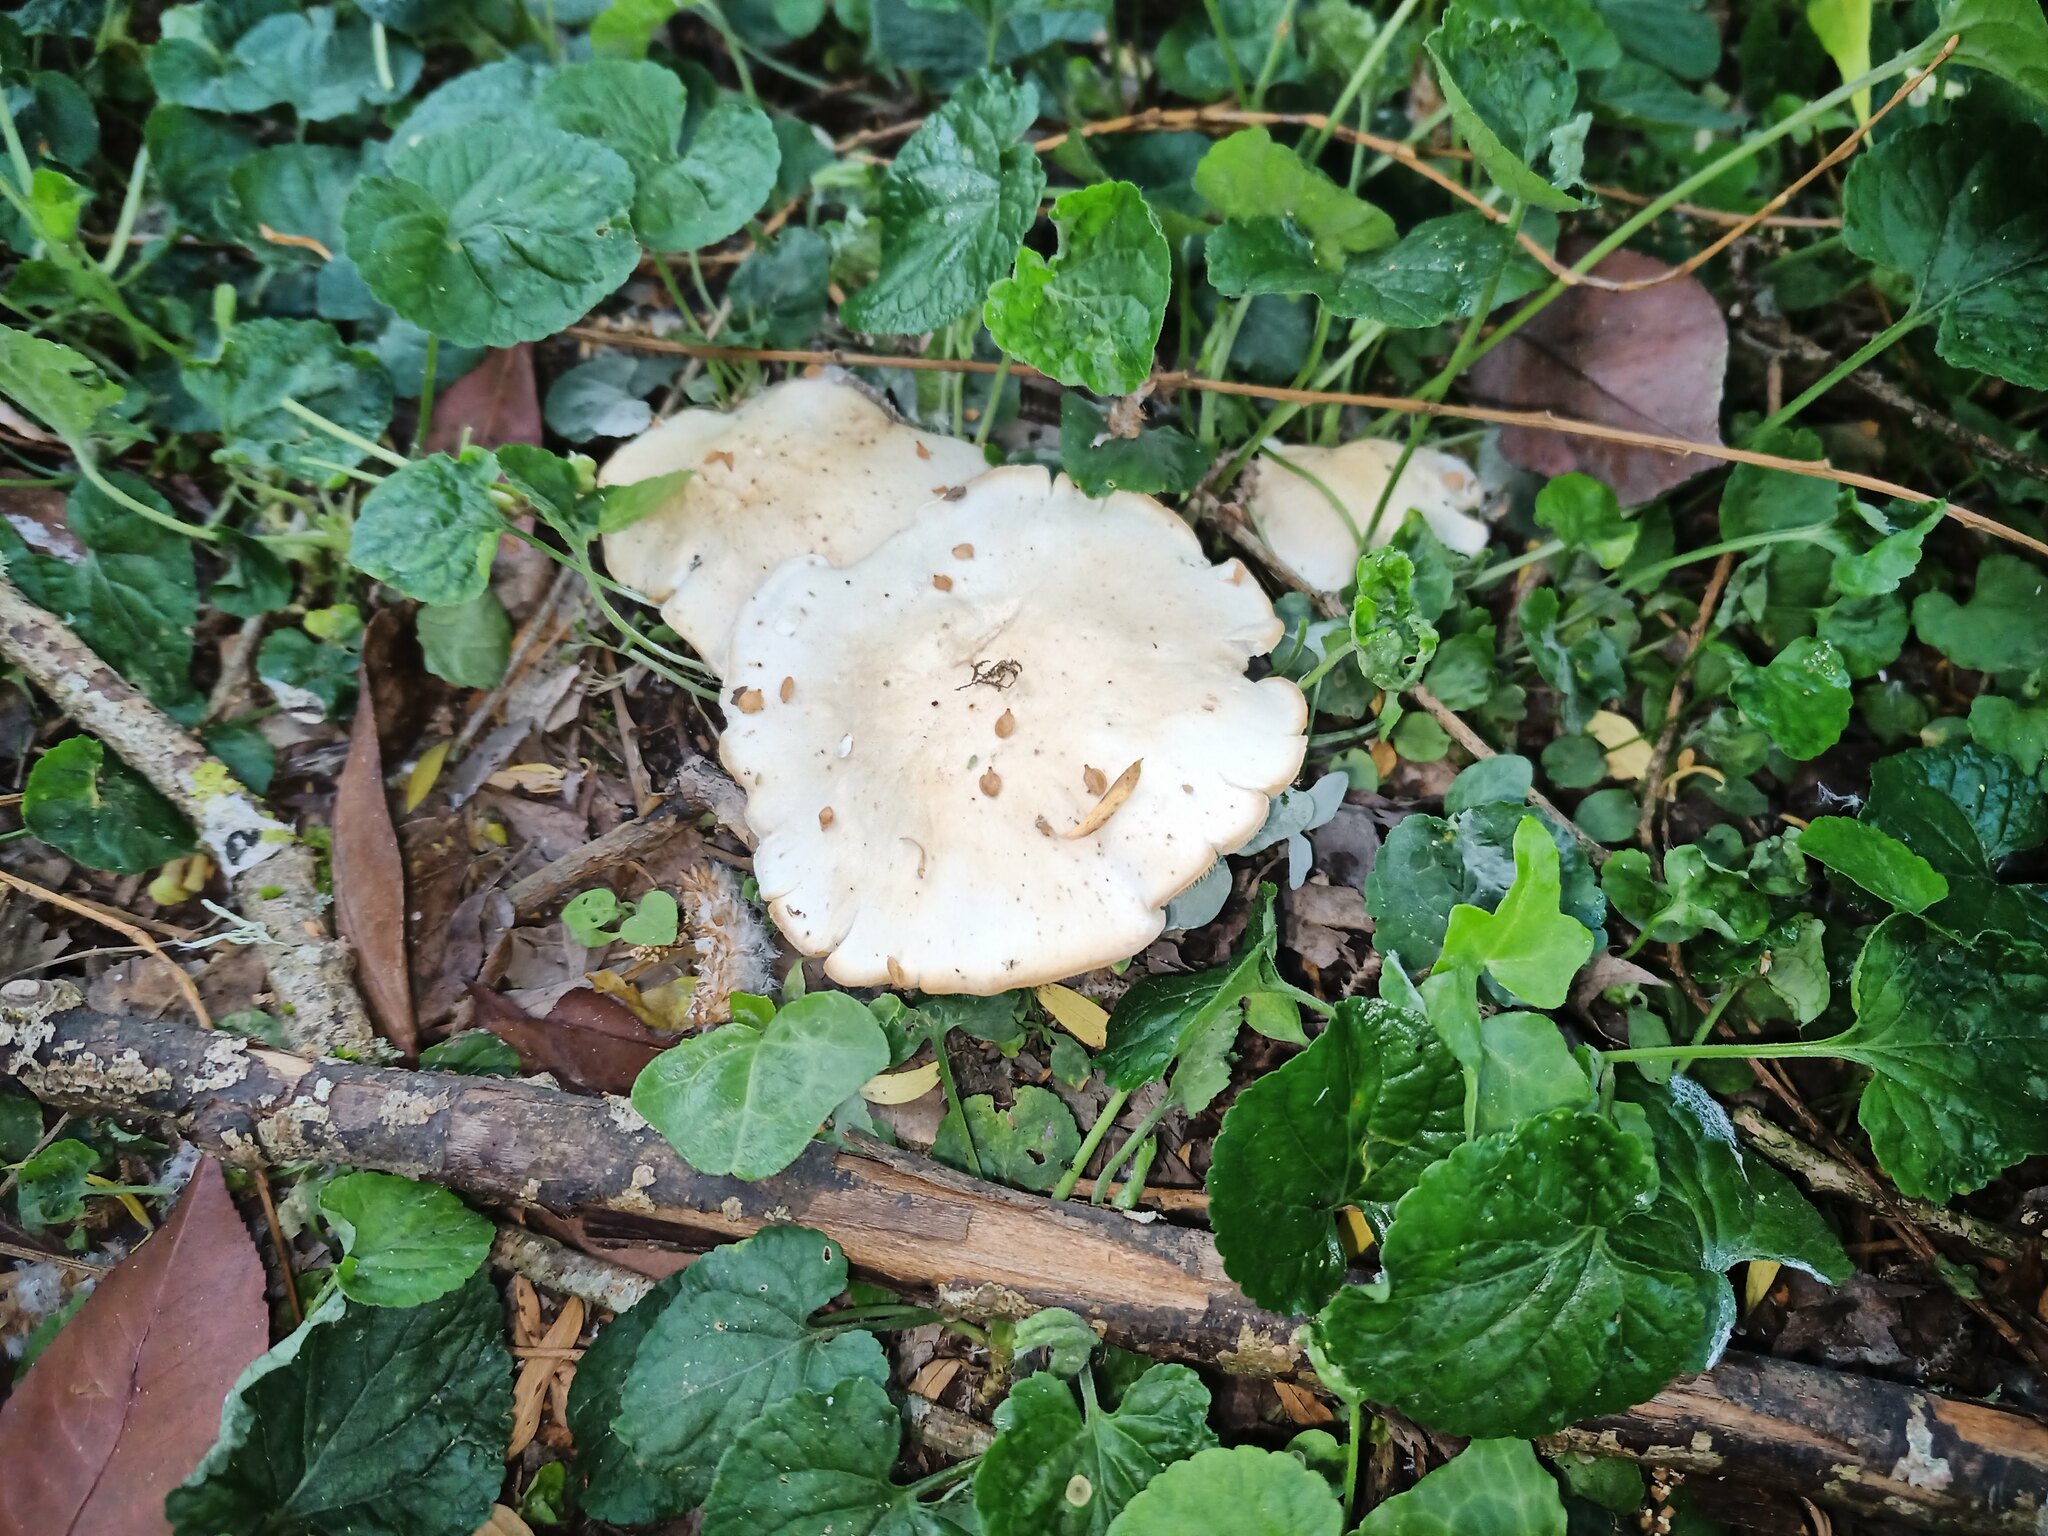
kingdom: Fungi
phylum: Basidiomycota
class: Agaricomycetes
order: Agaricales
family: Lyophyllaceae
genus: Calocybe
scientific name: Calocybe gambosa
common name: St. george's mushroom
